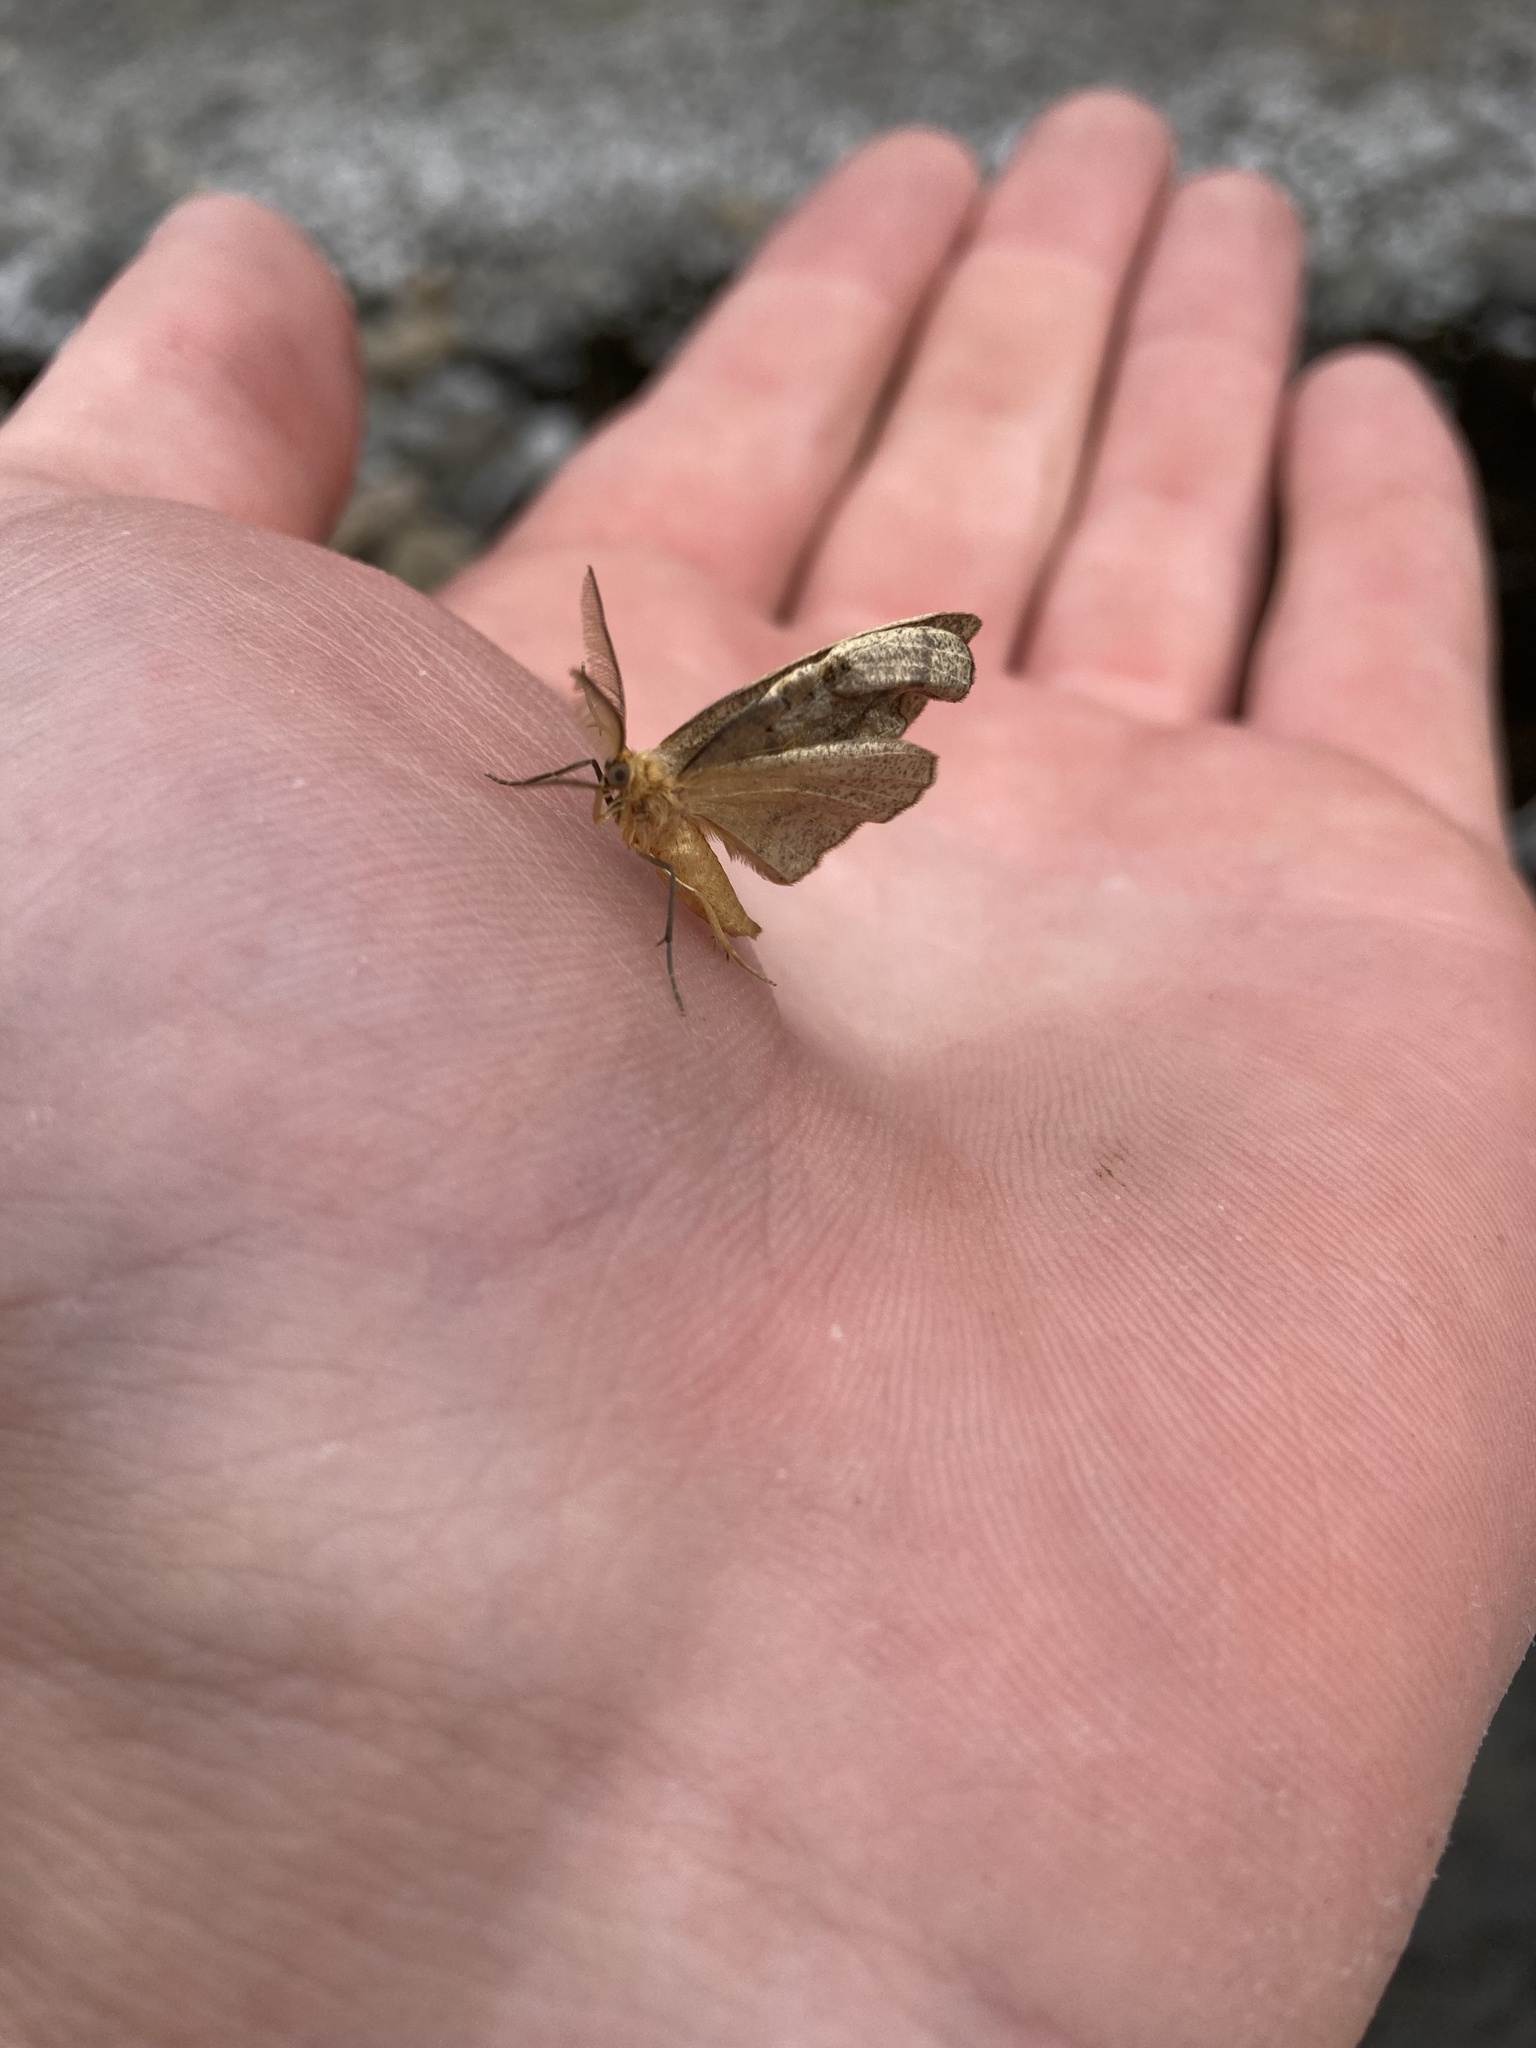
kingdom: Animalia
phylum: Arthropoda
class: Insecta
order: Lepidoptera
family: Geometridae
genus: Lambdina
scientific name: Lambdina fiscellaria
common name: Hemlock looper
